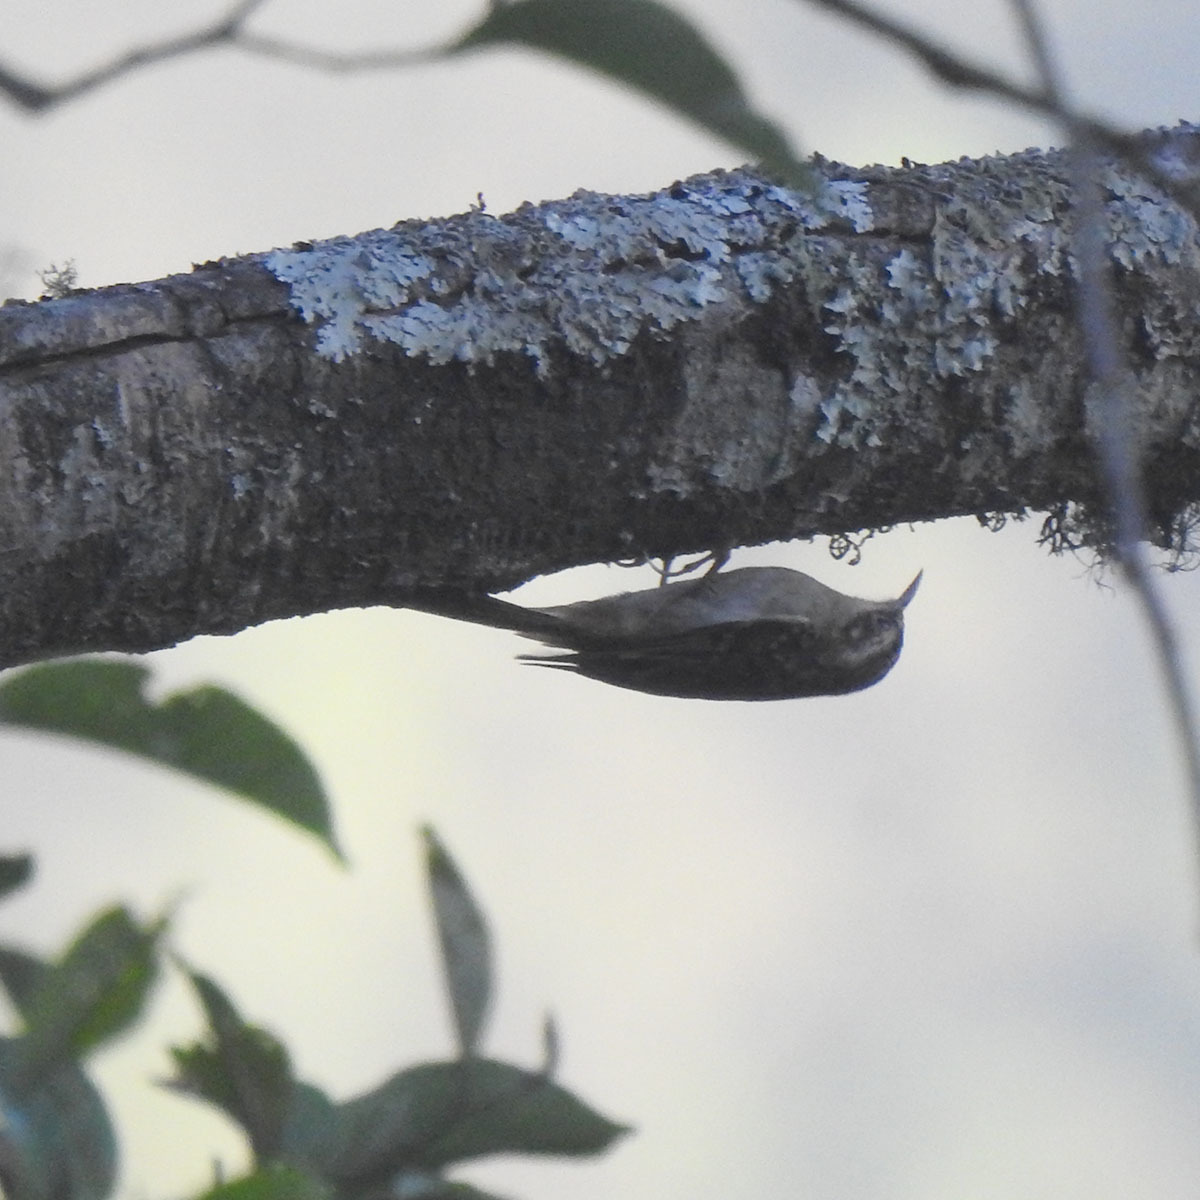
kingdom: Animalia
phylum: Chordata
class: Aves
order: Passeriformes
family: Certhiidae
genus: Certhia
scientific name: Certhia discolor
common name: Brown-throated treecreeper
